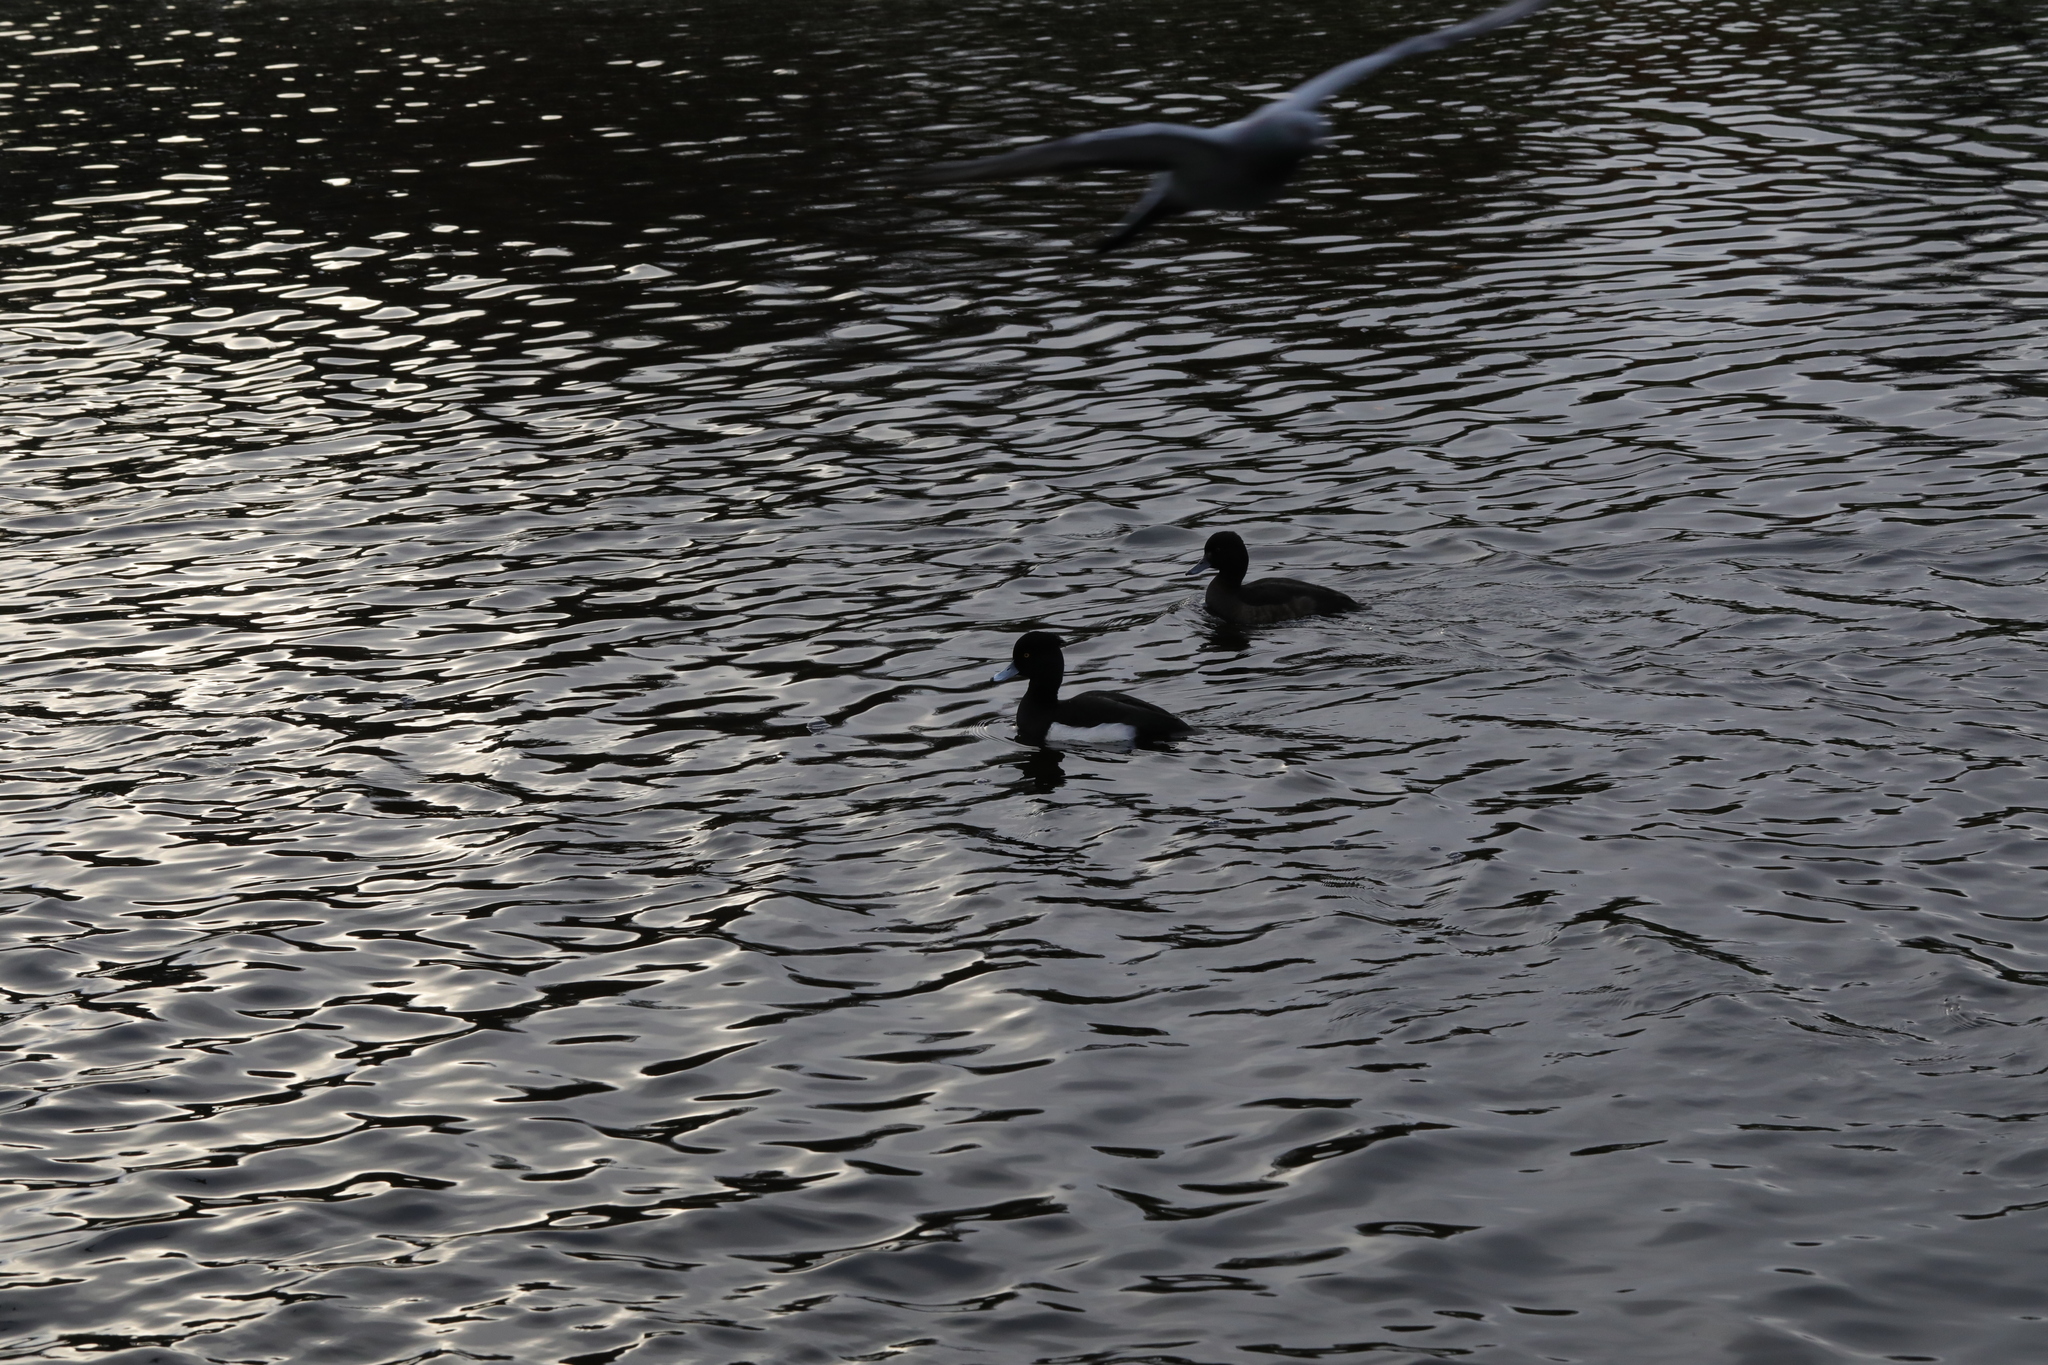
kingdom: Animalia
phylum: Chordata
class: Aves
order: Anseriformes
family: Anatidae
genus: Aythya
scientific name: Aythya fuligula
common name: Tufted duck
